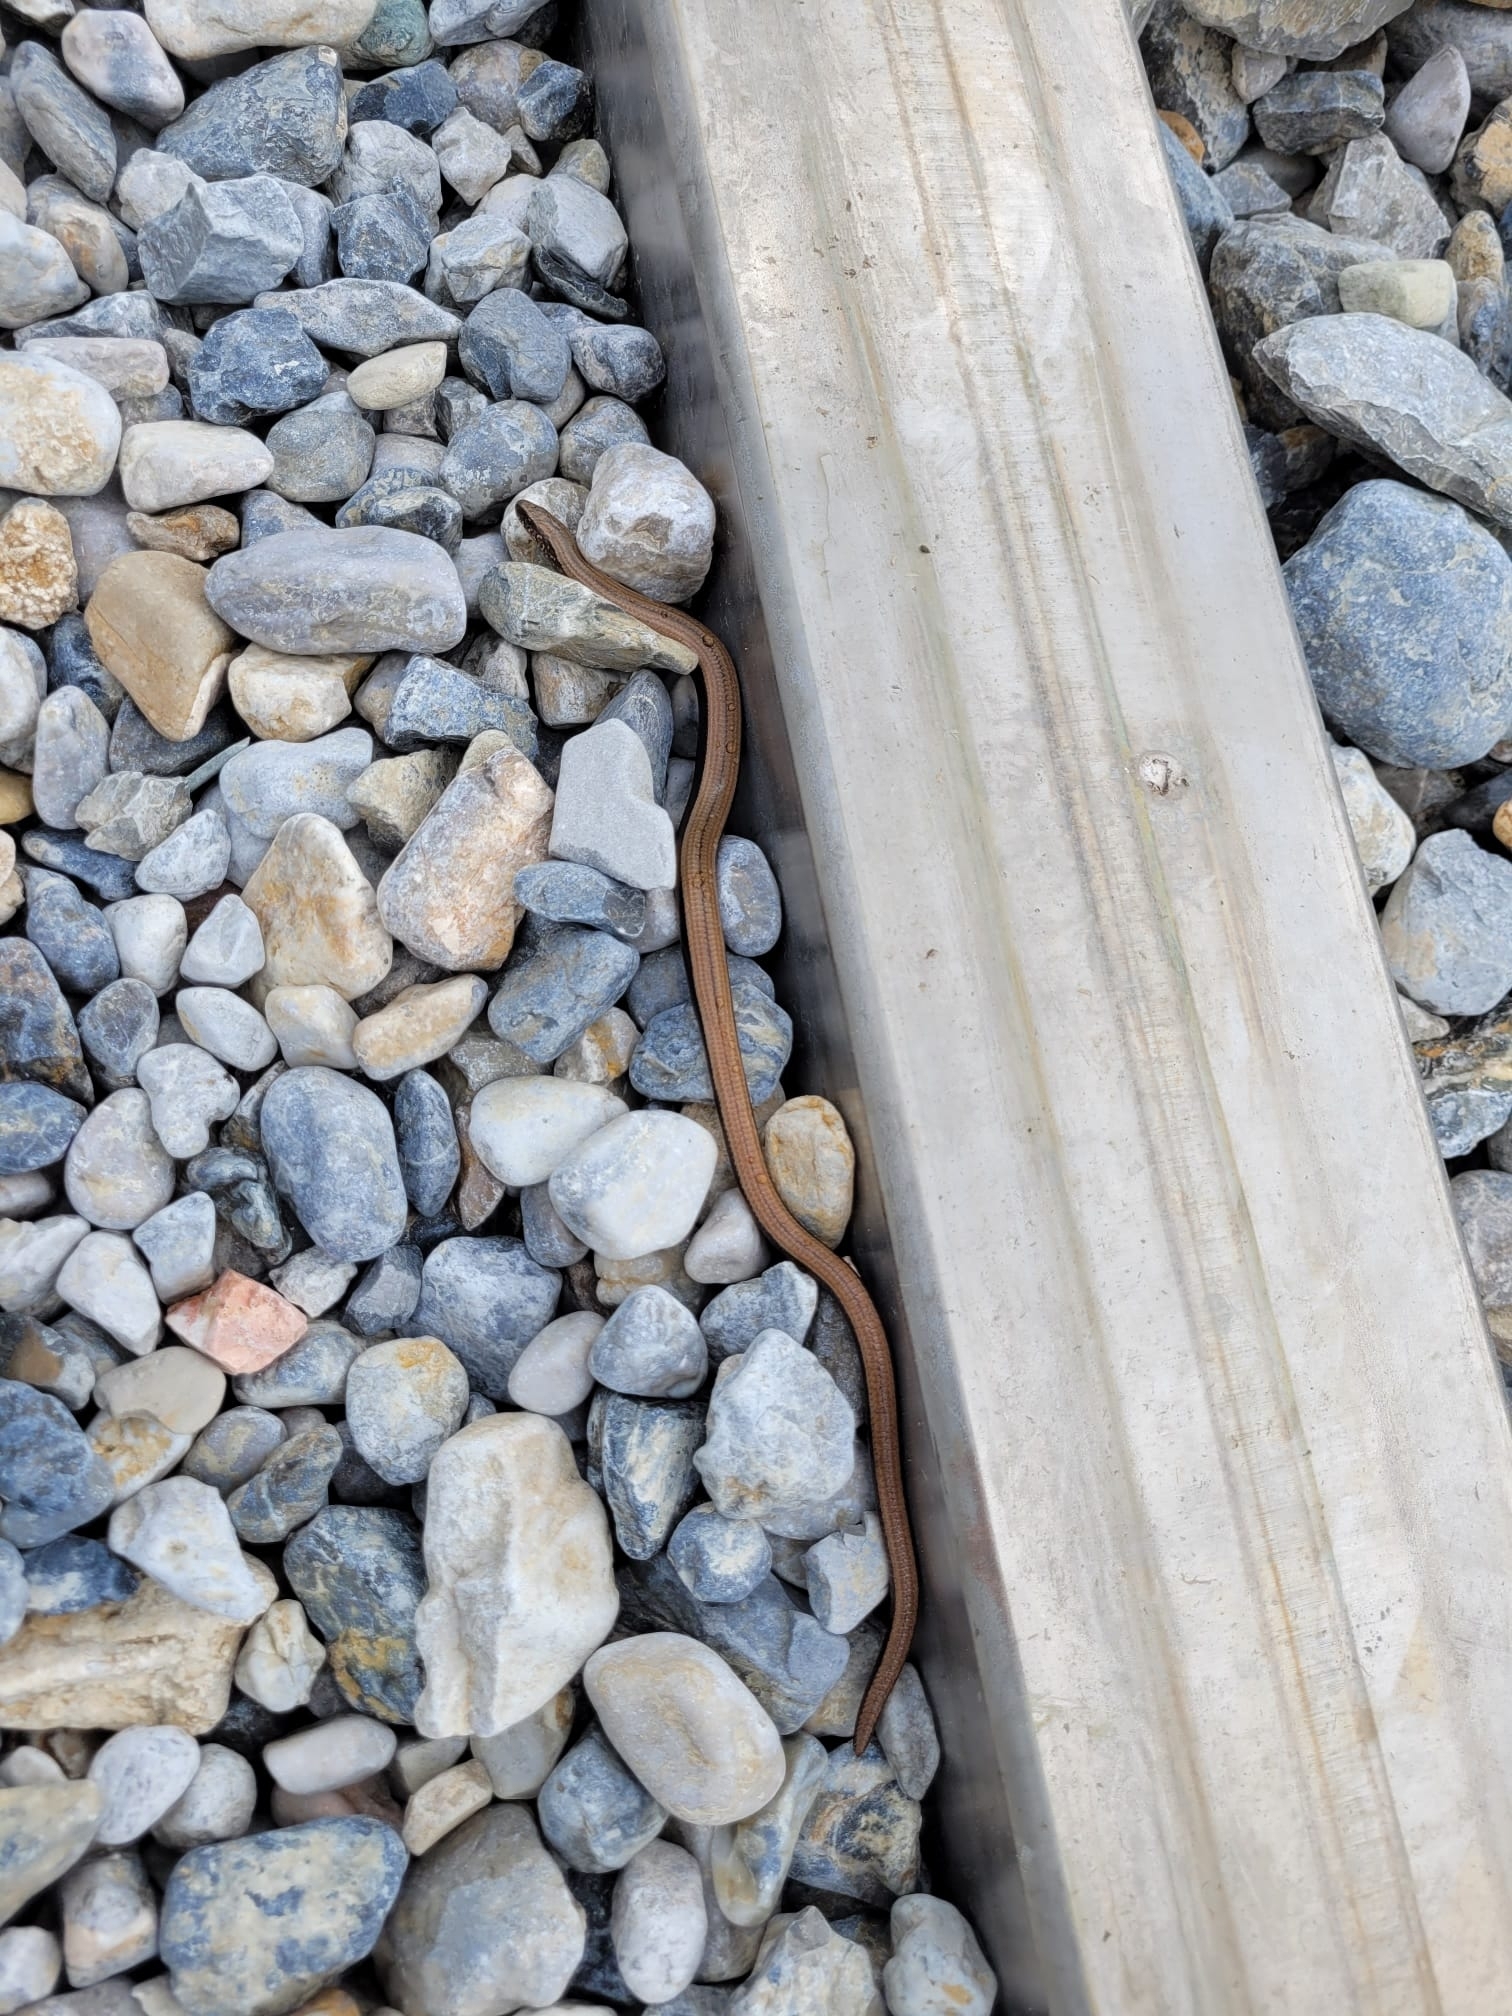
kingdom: Animalia
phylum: Chordata
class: Squamata
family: Anguidae
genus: Anguis
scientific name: Anguis fragilis
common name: Slow worm
